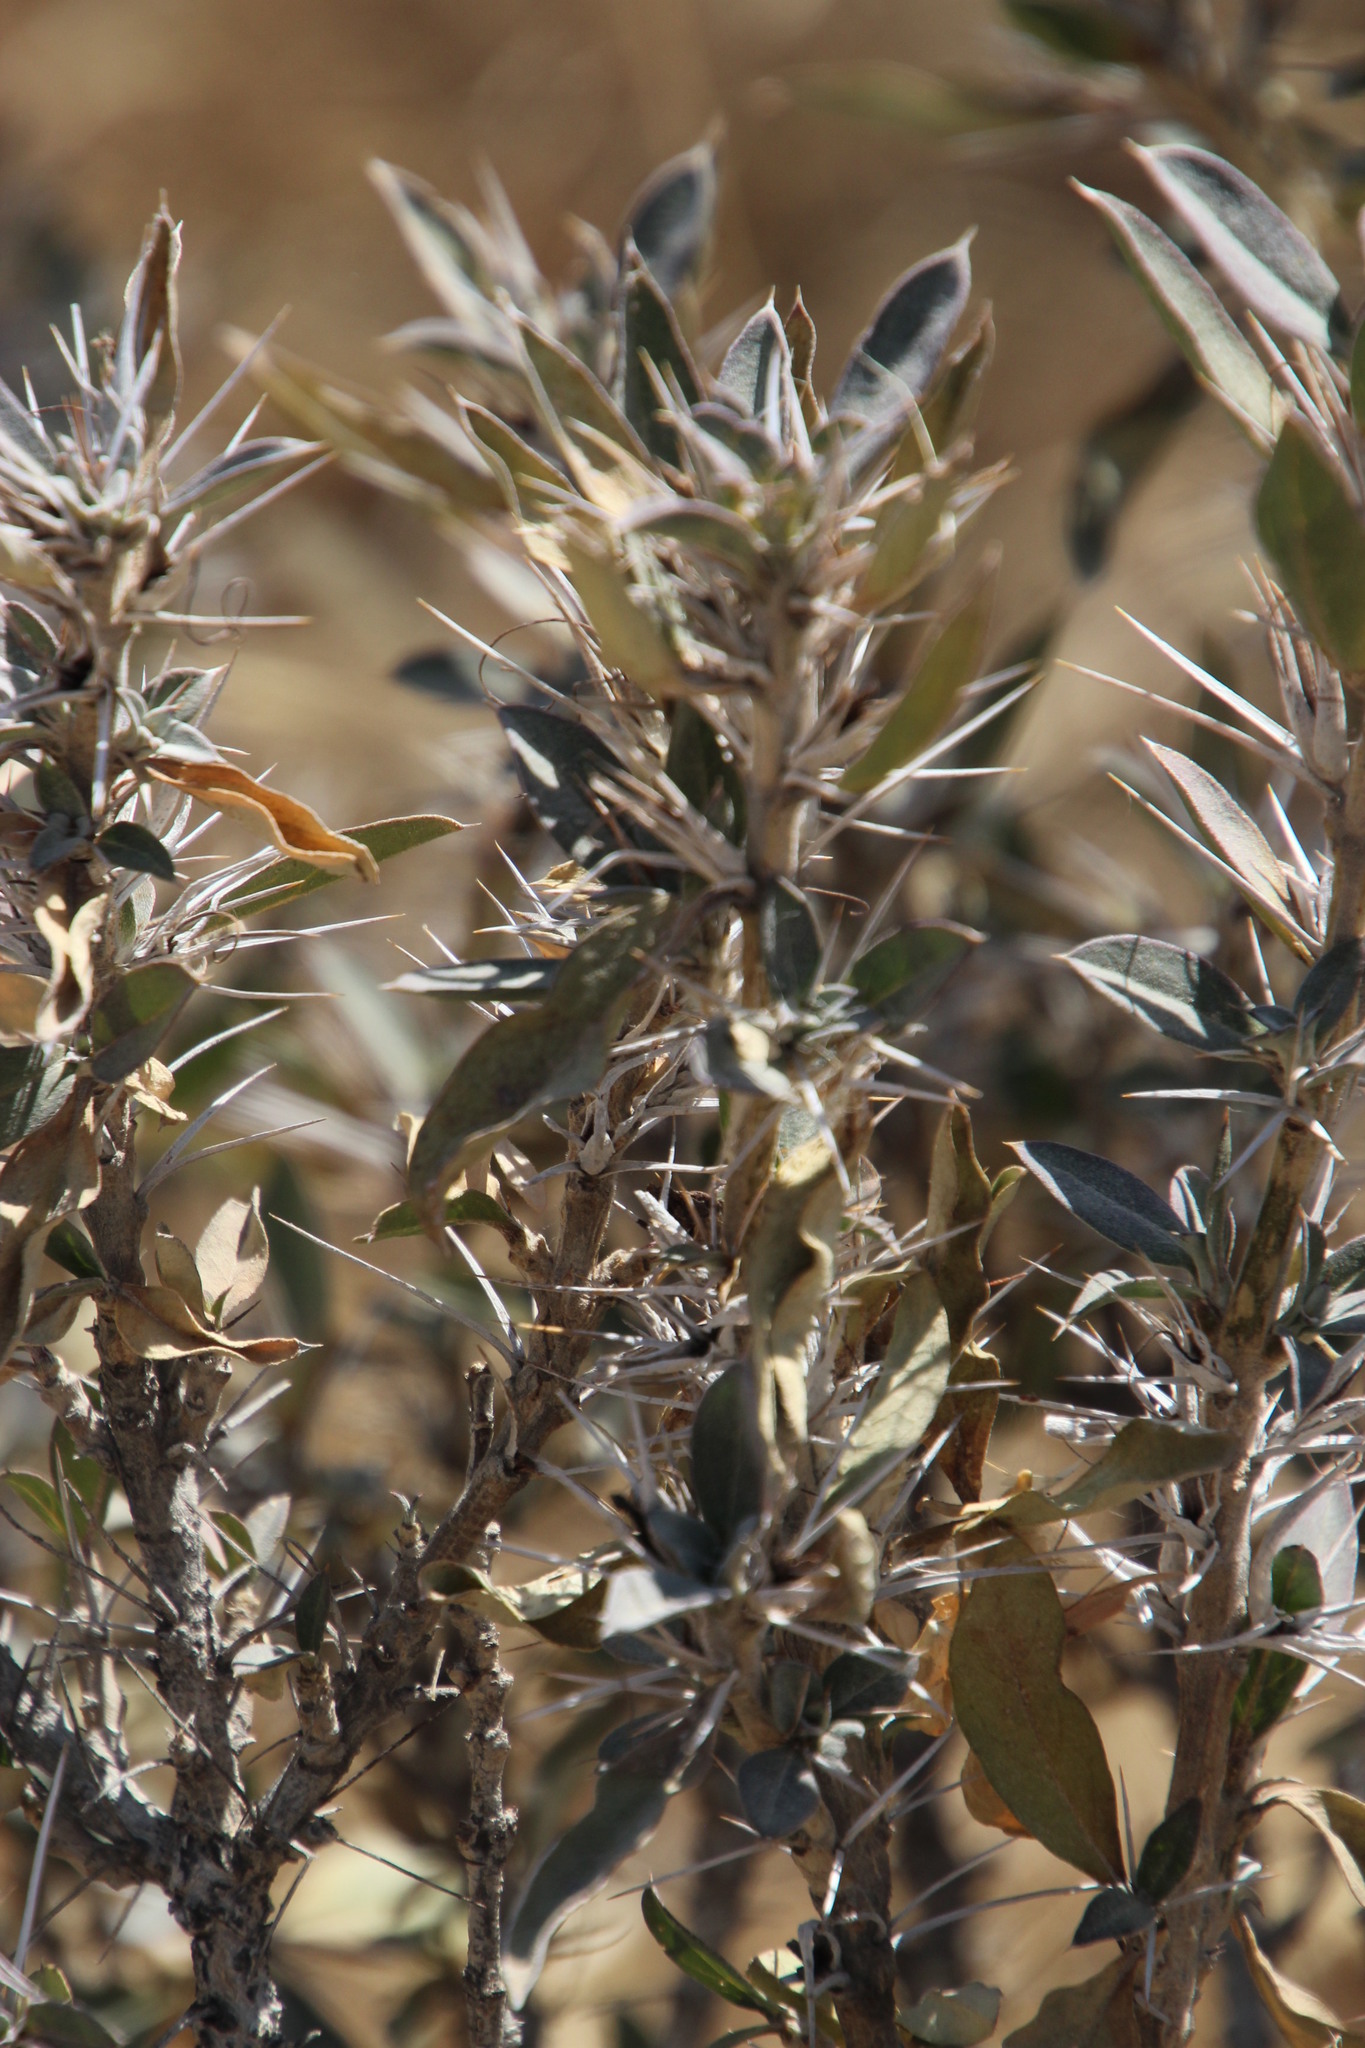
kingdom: Plantae
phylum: Tracheophyta
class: Magnoliopsida
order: Lamiales
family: Scrophulariaceae
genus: Aptosimum
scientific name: Aptosimum albomarginatum
